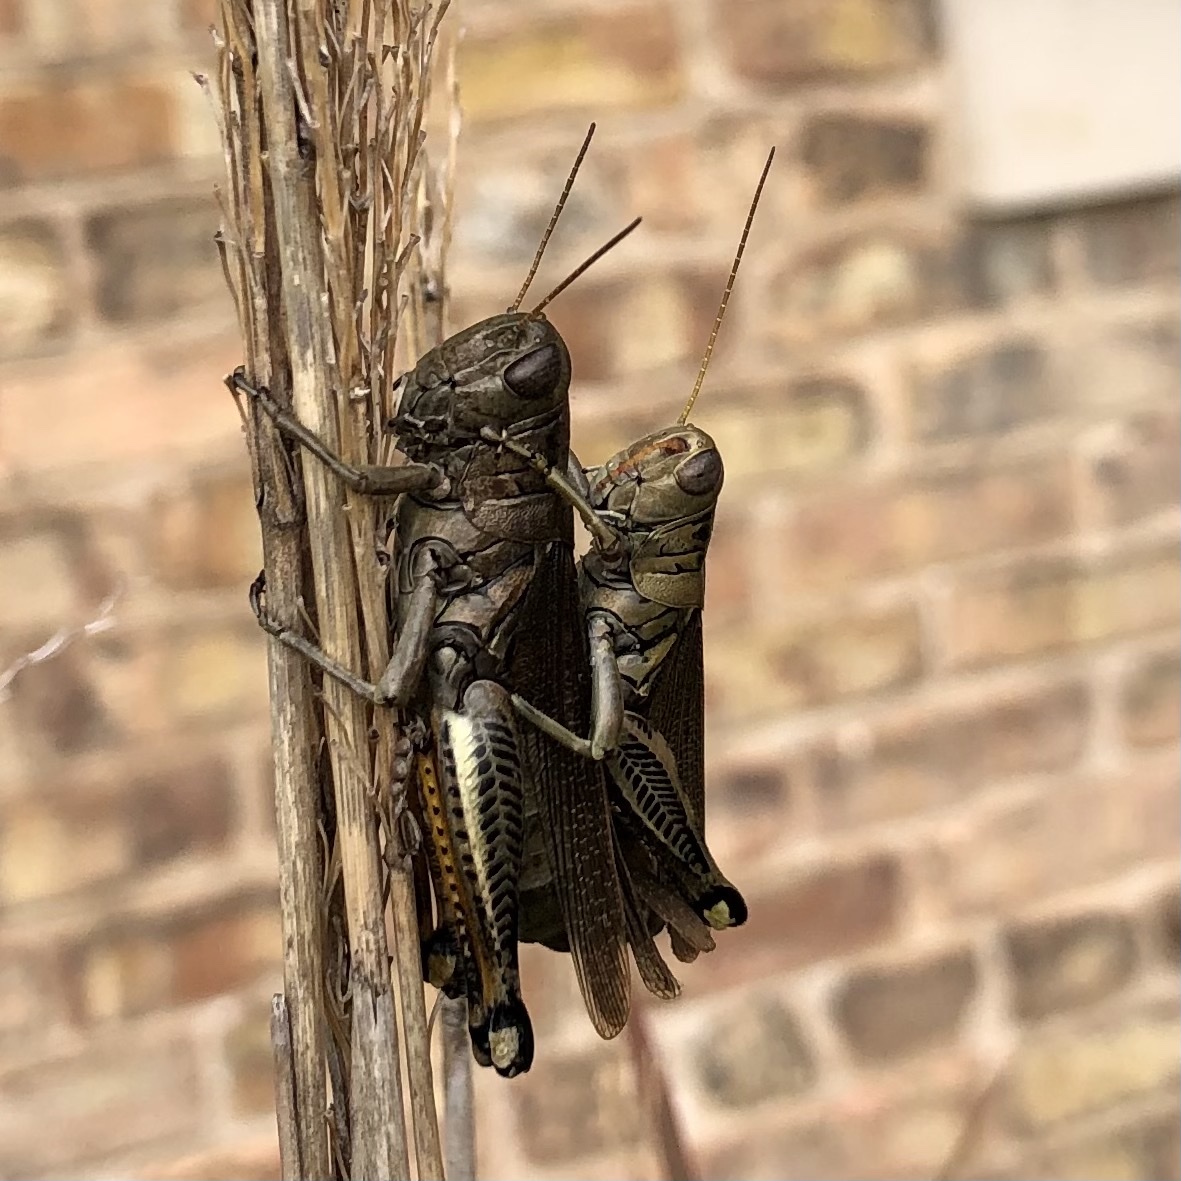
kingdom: Animalia
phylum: Arthropoda
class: Insecta
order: Orthoptera
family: Acrididae
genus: Melanoplus
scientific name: Melanoplus differentialis
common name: Differential grasshopper
